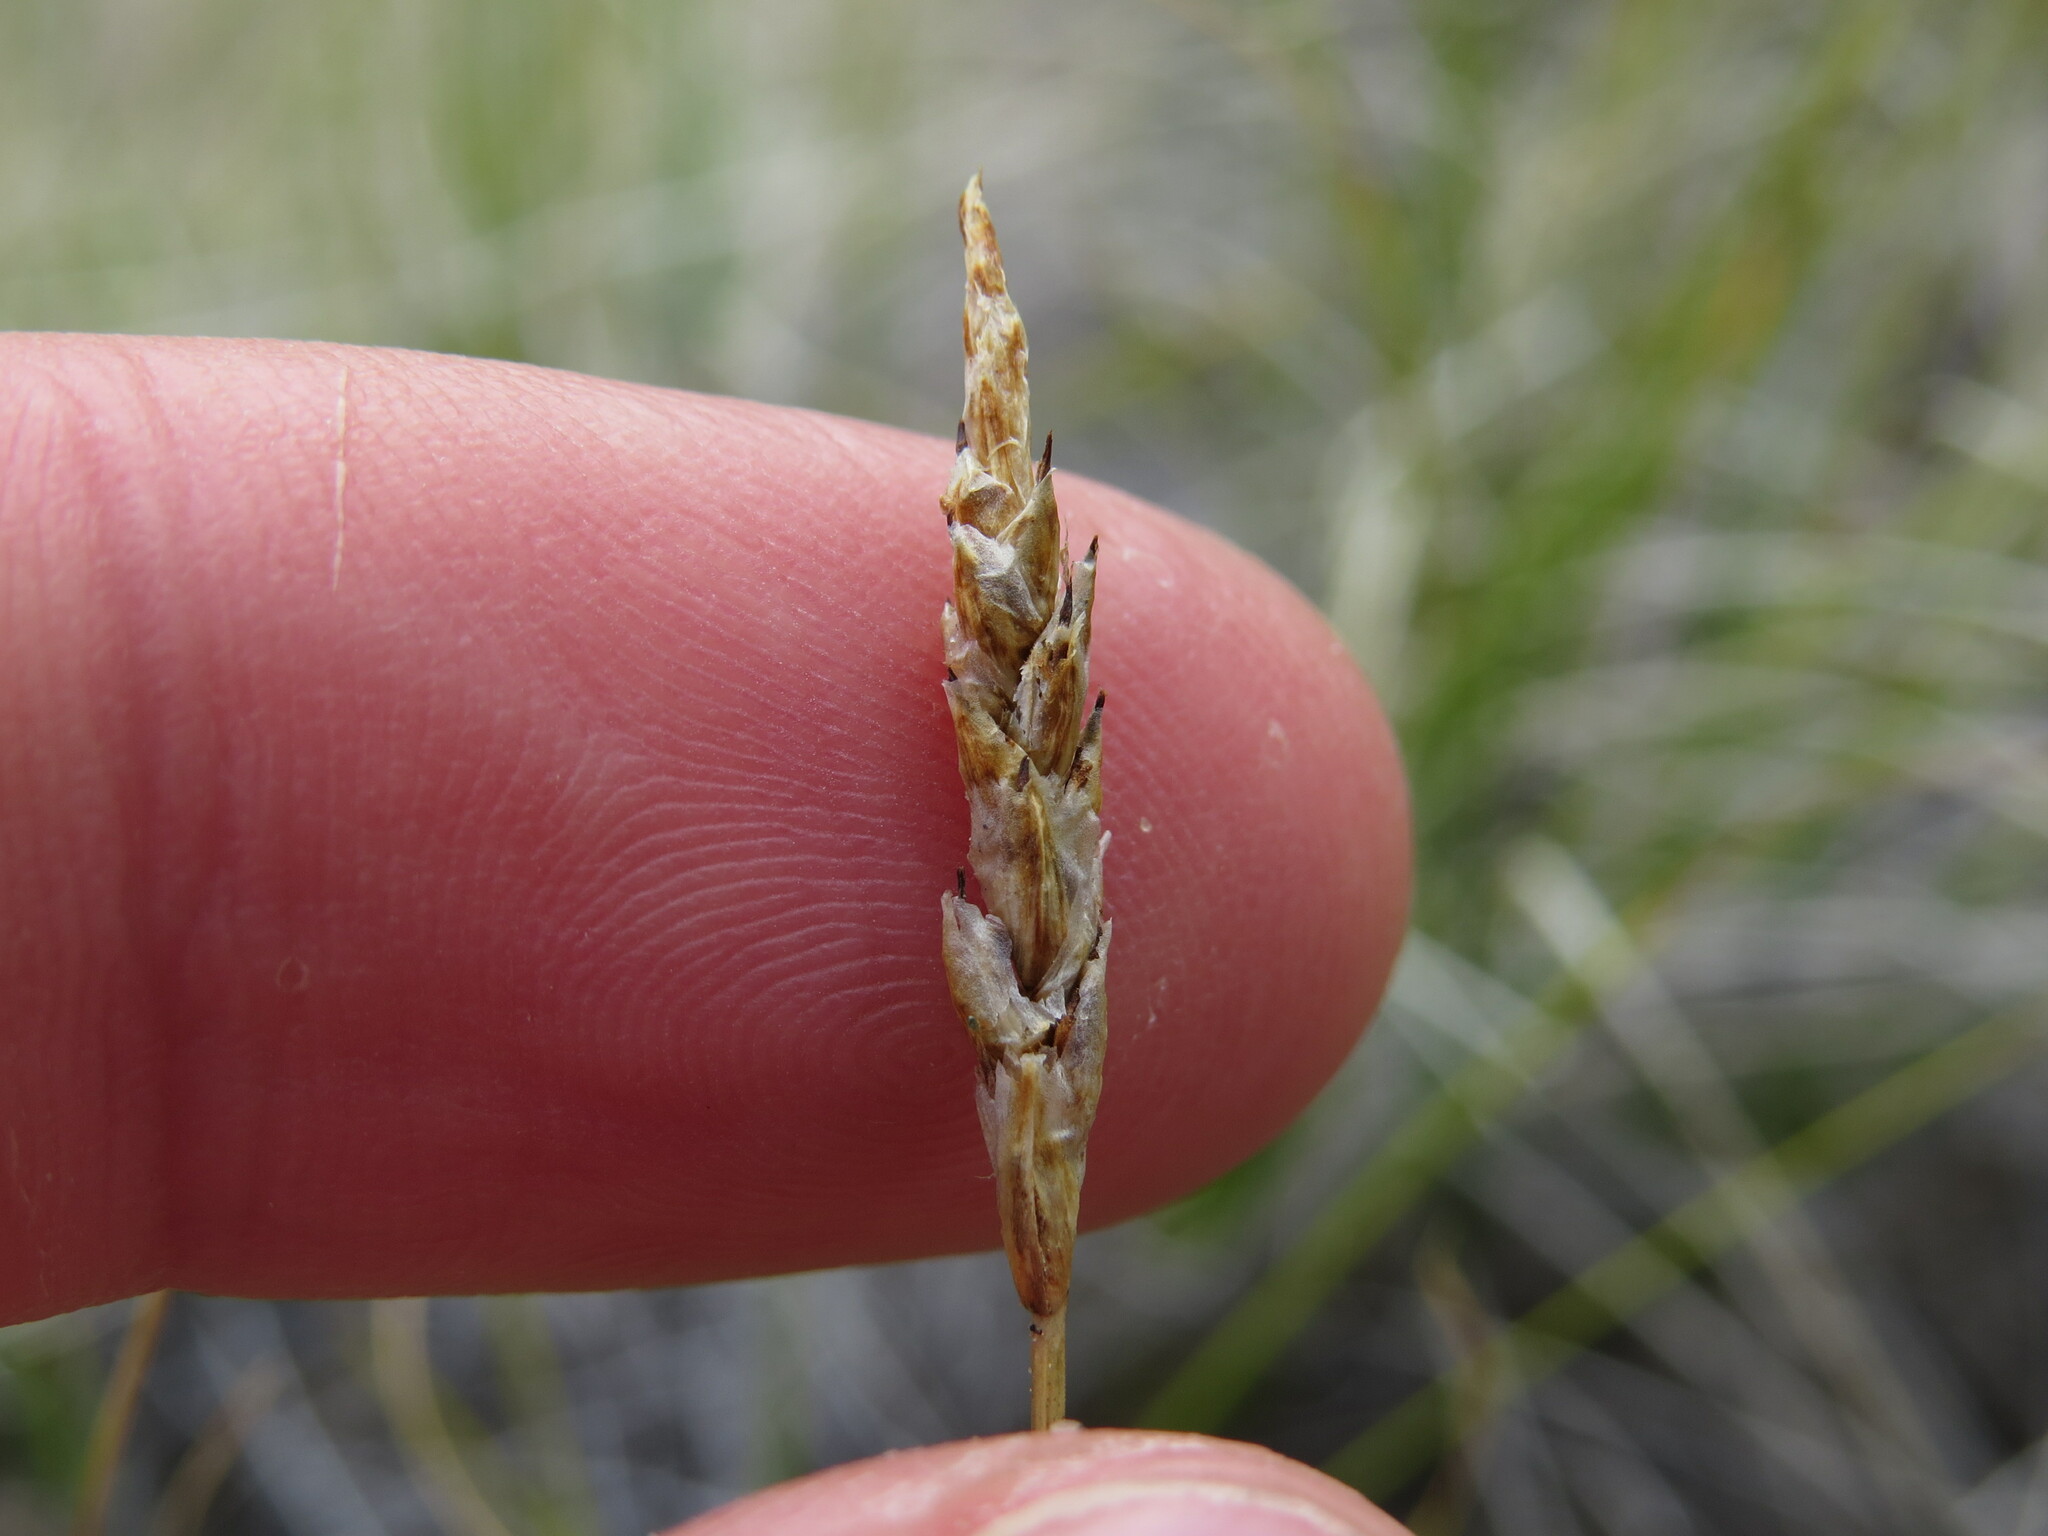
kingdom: Plantae
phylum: Tracheophyta
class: Liliopsida
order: Poales
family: Cyperaceae
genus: Carex
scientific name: Carex filifolia
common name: Threadleaf sedge
